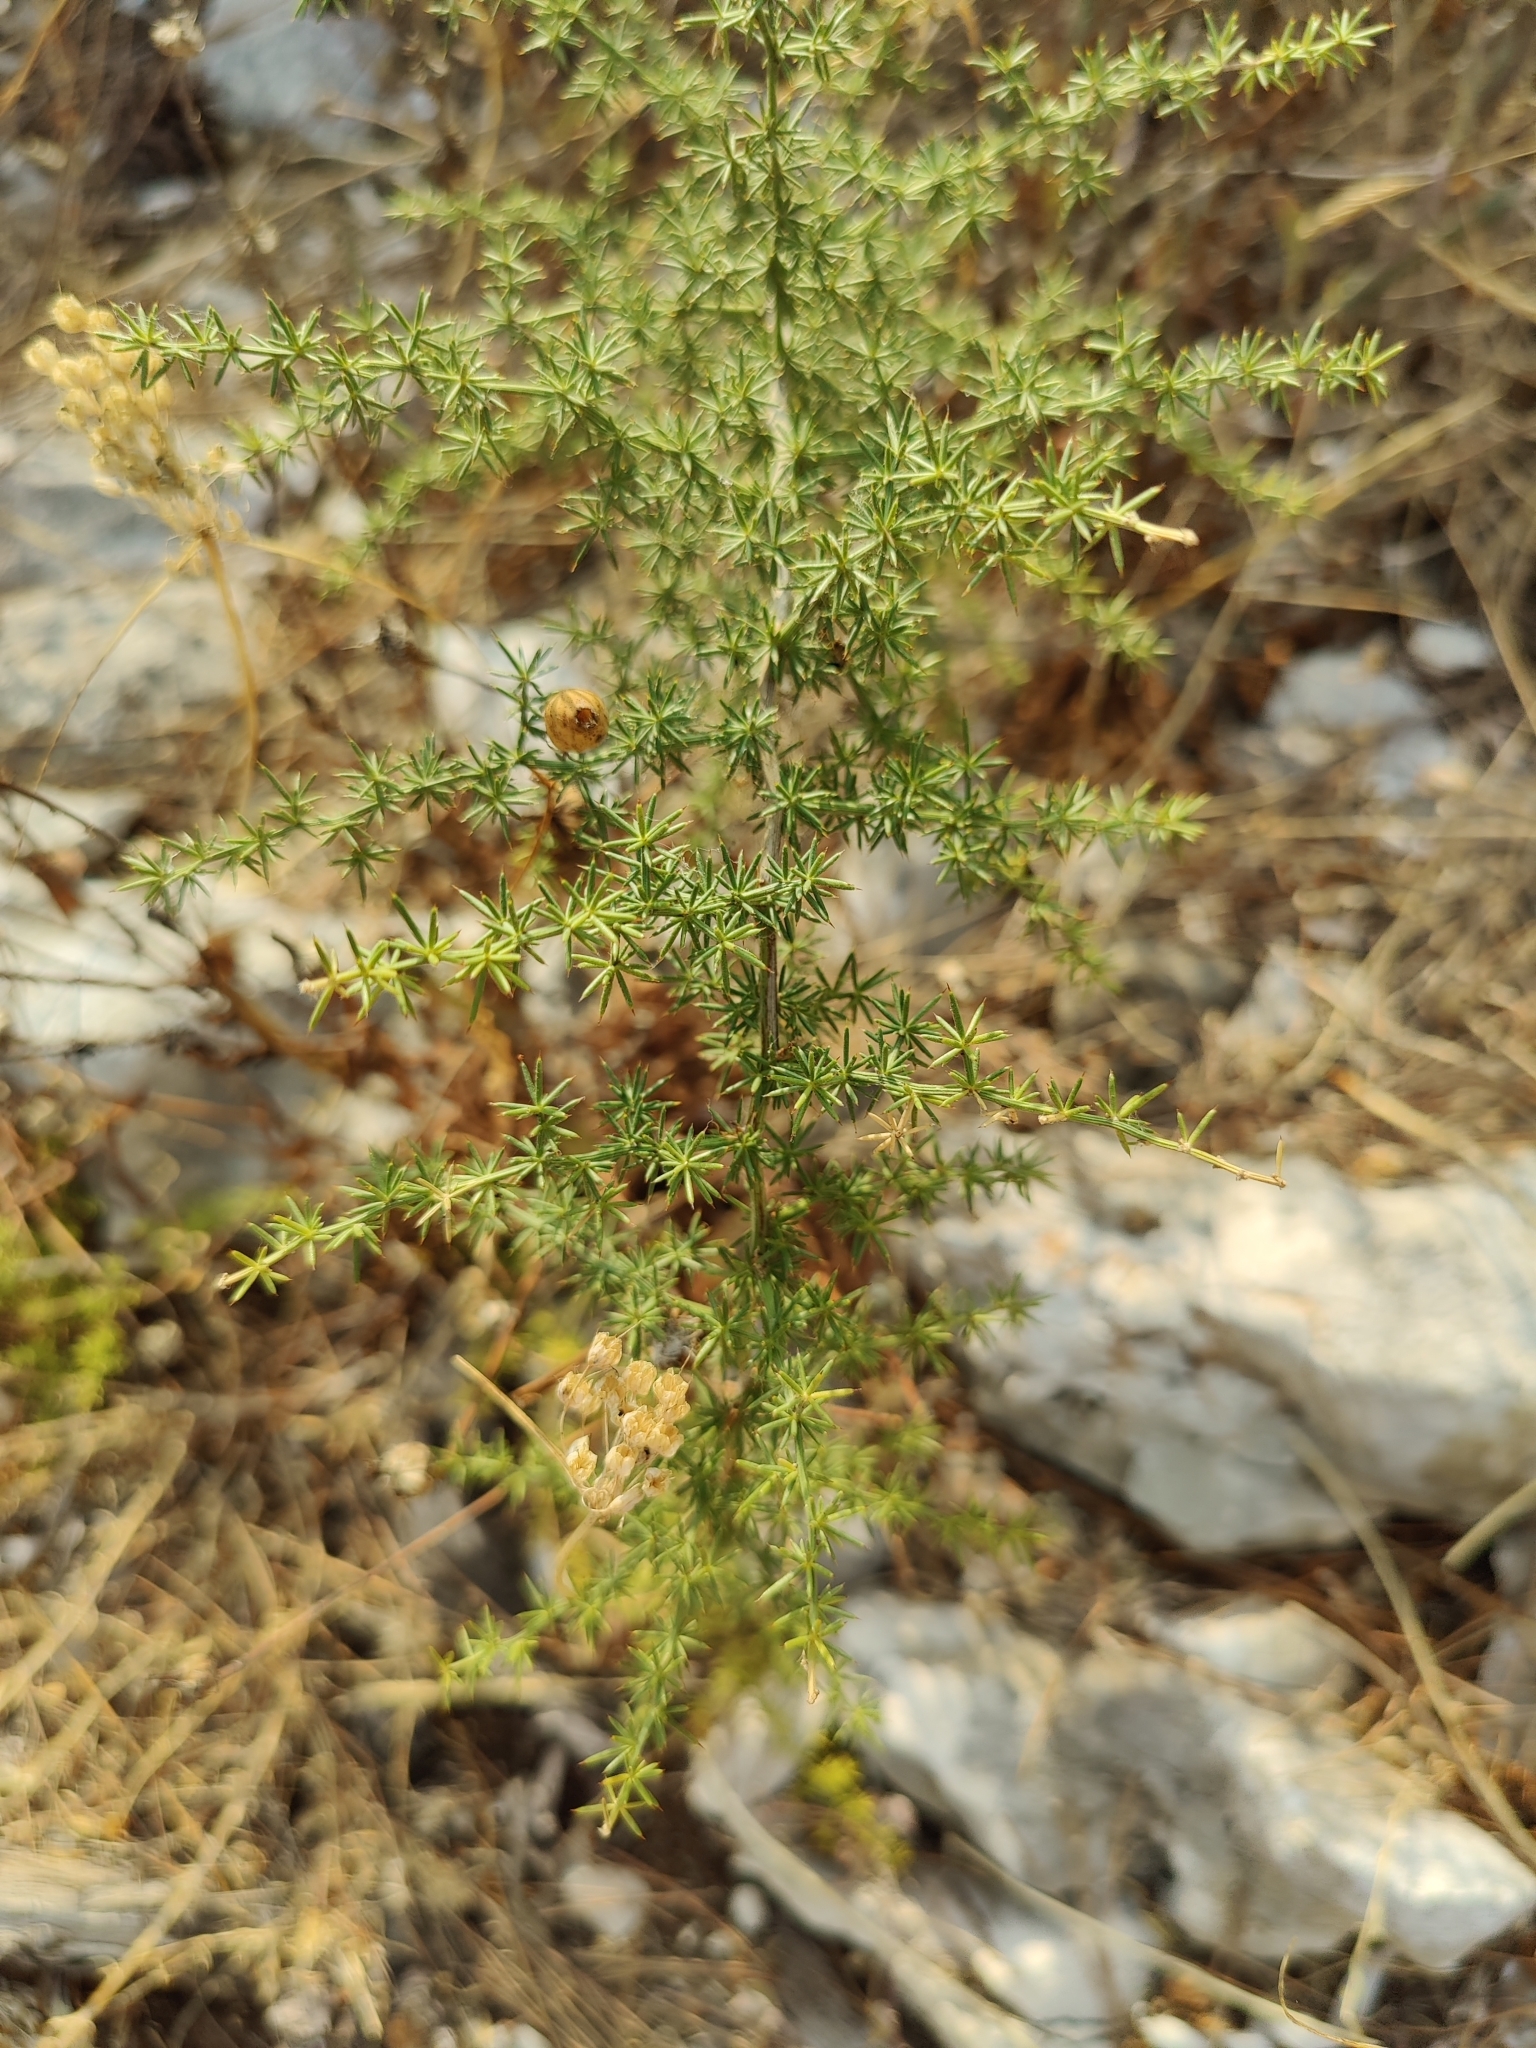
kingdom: Plantae
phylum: Tracheophyta
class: Liliopsida
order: Asparagales
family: Asparagaceae
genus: Asparagus
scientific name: Asparagus acutifolius
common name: Wild asparagus
